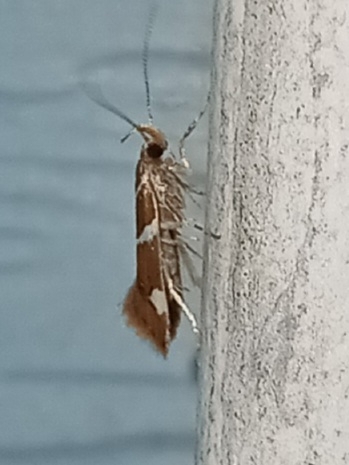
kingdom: Animalia
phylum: Arthropoda
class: Insecta
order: Lepidoptera
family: Oecophoridae
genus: Promalactis
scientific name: Promalactis suzukiella
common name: Moth
